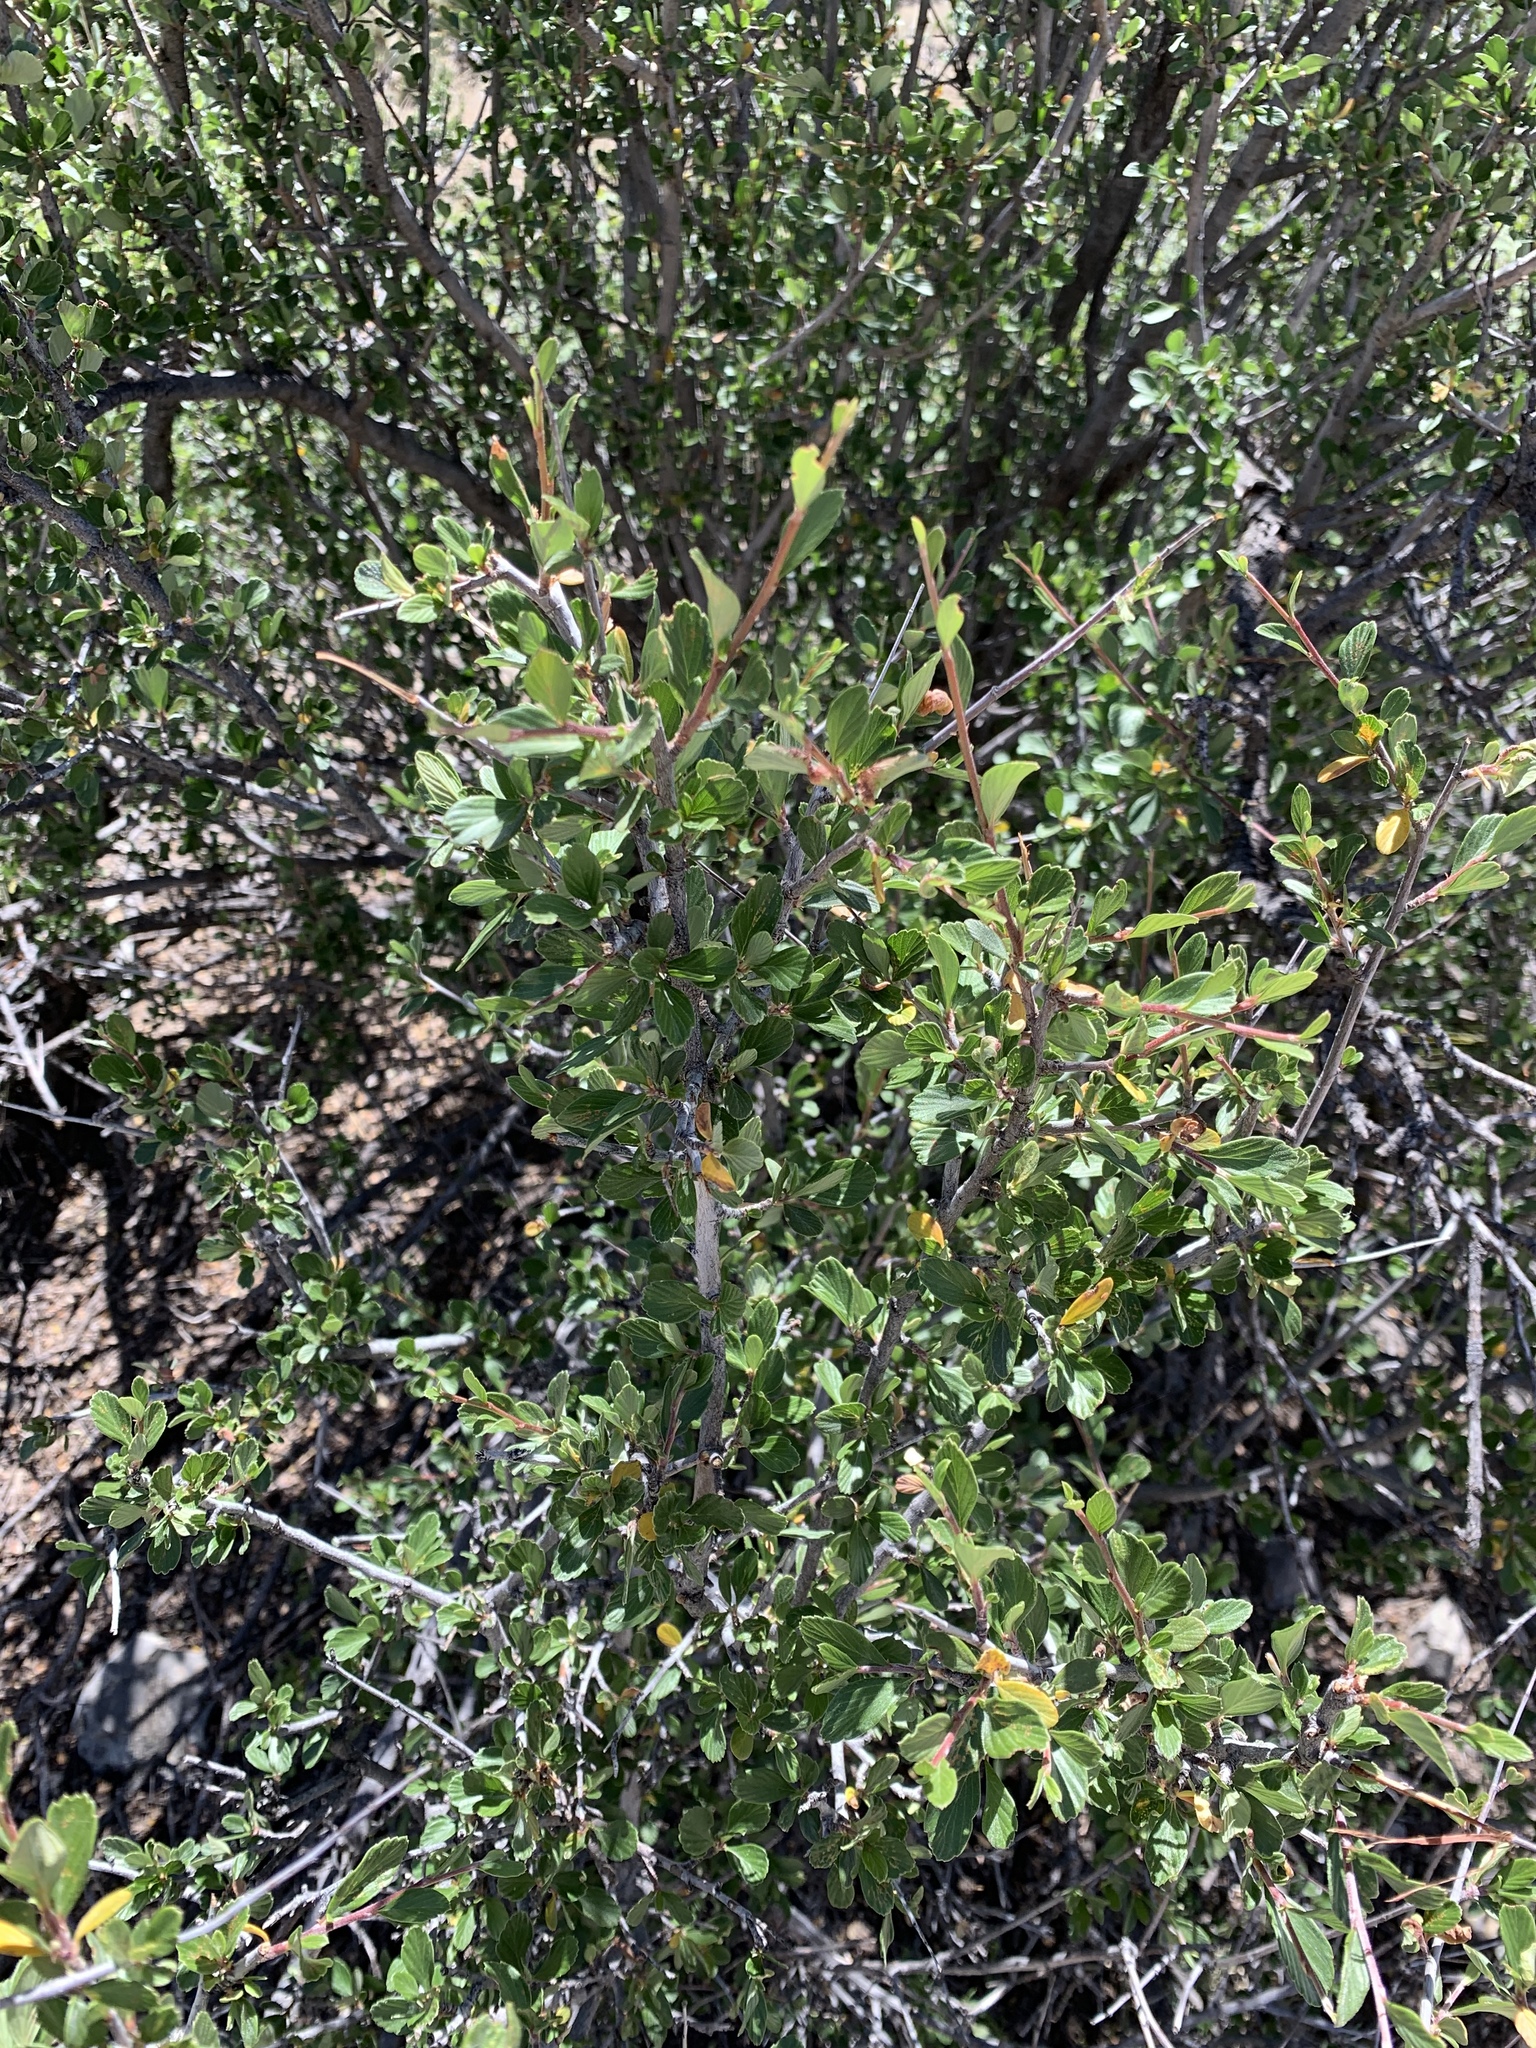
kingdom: Plantae
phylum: Tracheophyta
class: Magnoliopsida
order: Rosales
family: Rosaceae
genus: Cercocarpus
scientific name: Cercocarpus breviflorus
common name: Wright's mountain-mahogany
